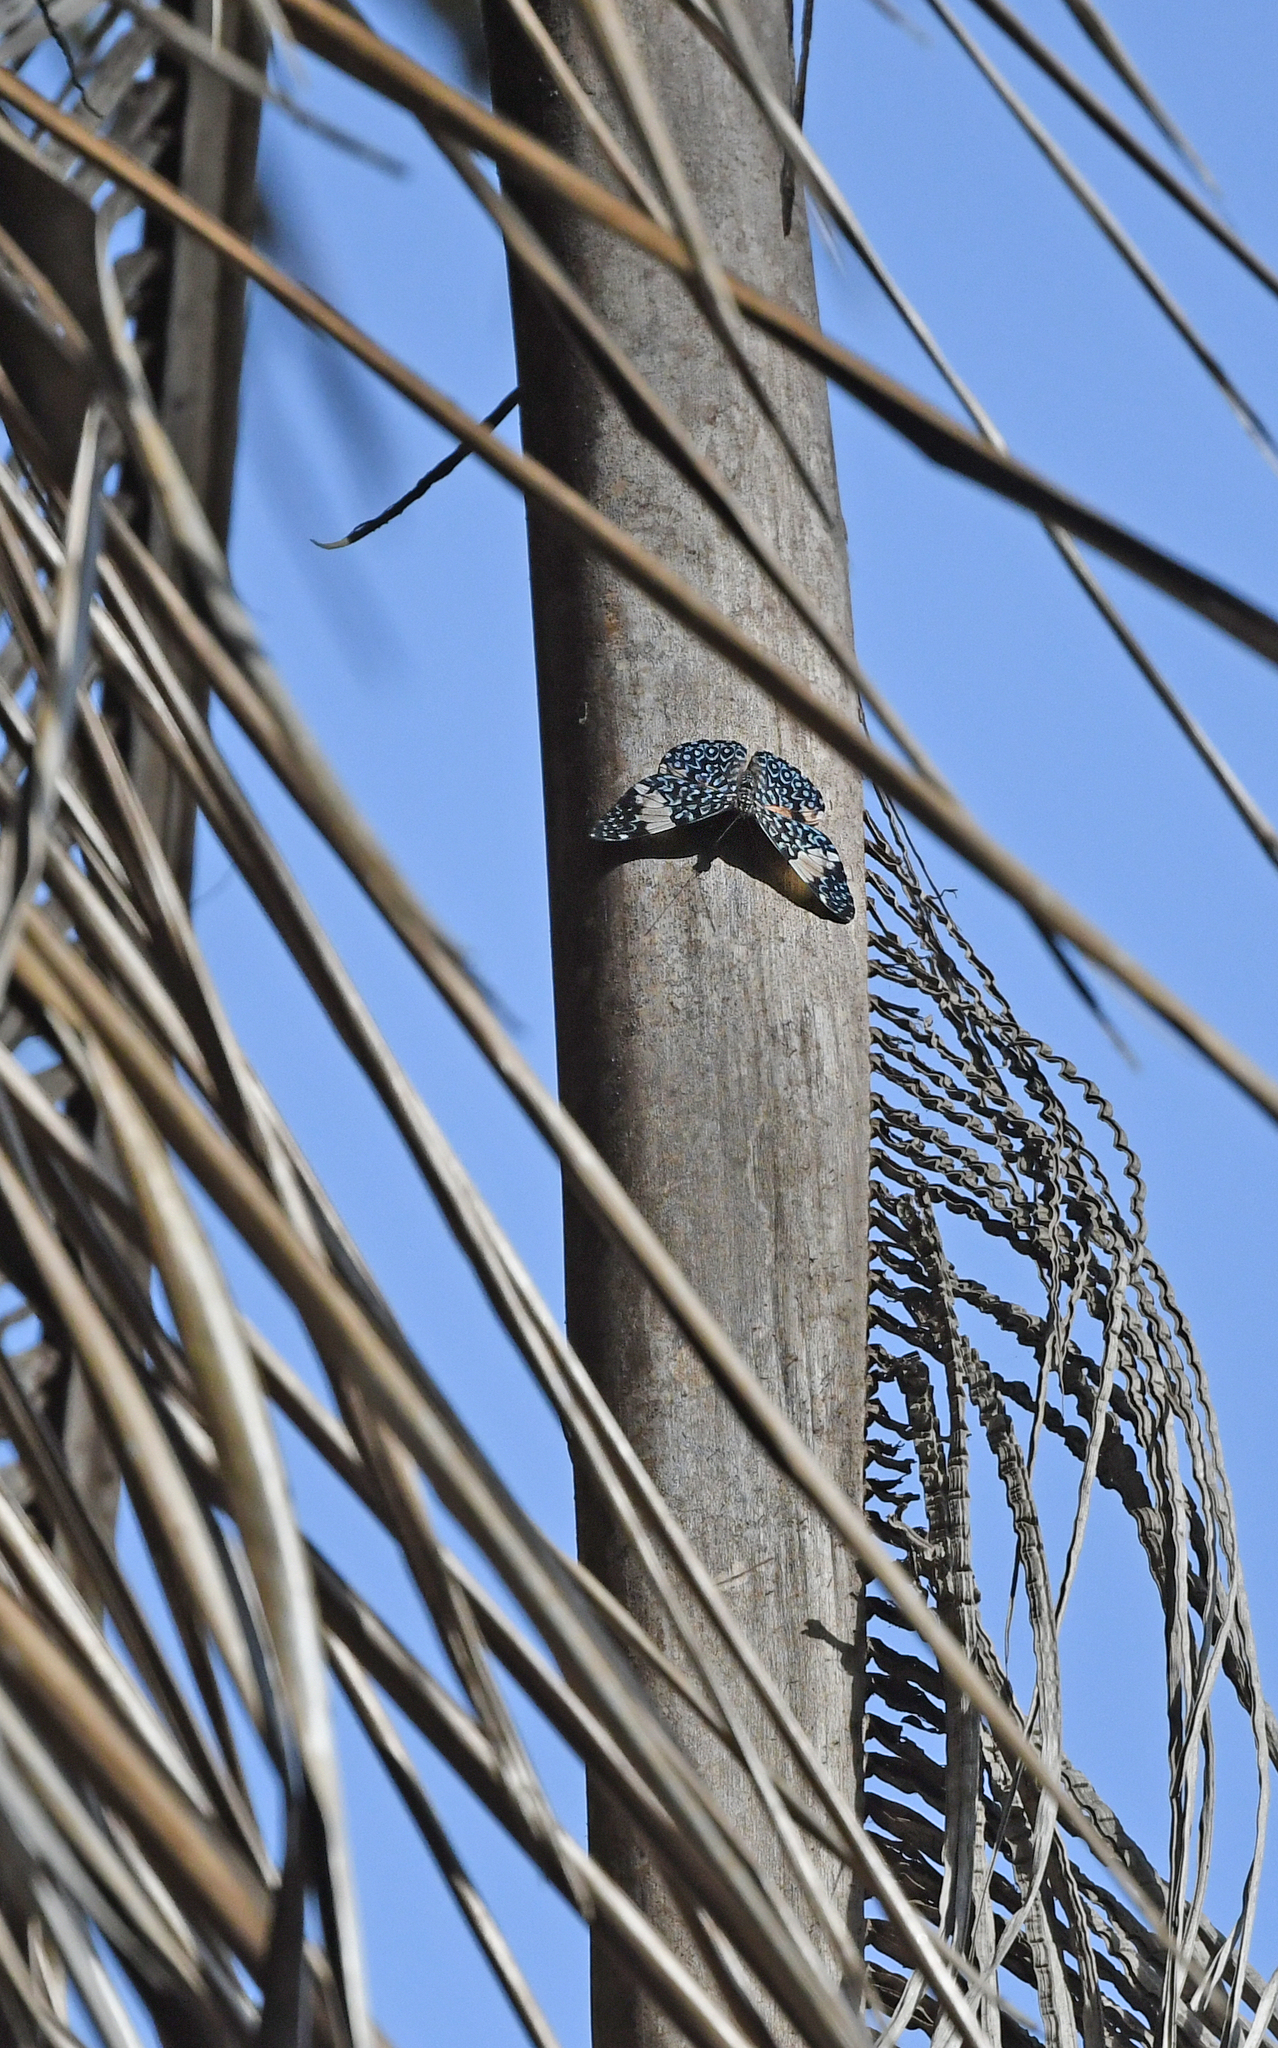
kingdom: Animalia
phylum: Arthropoda
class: Insecta
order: Lepidoptera
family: Nymphalidae
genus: Hamadryas
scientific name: Hamadryas amphinome
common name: Red cracker
